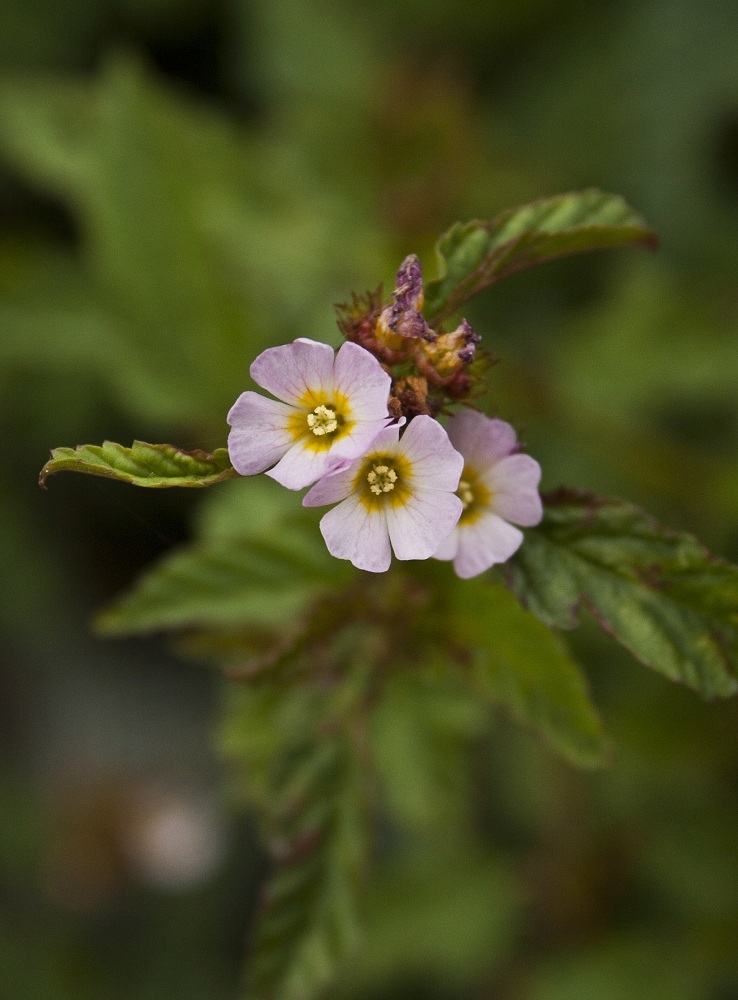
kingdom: Plantae
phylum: Tracheophyta
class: Magnoliopsida
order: Malvales
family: Malvaceae
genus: Melochia
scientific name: Melochia corchorifolia
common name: Chocolateweed
